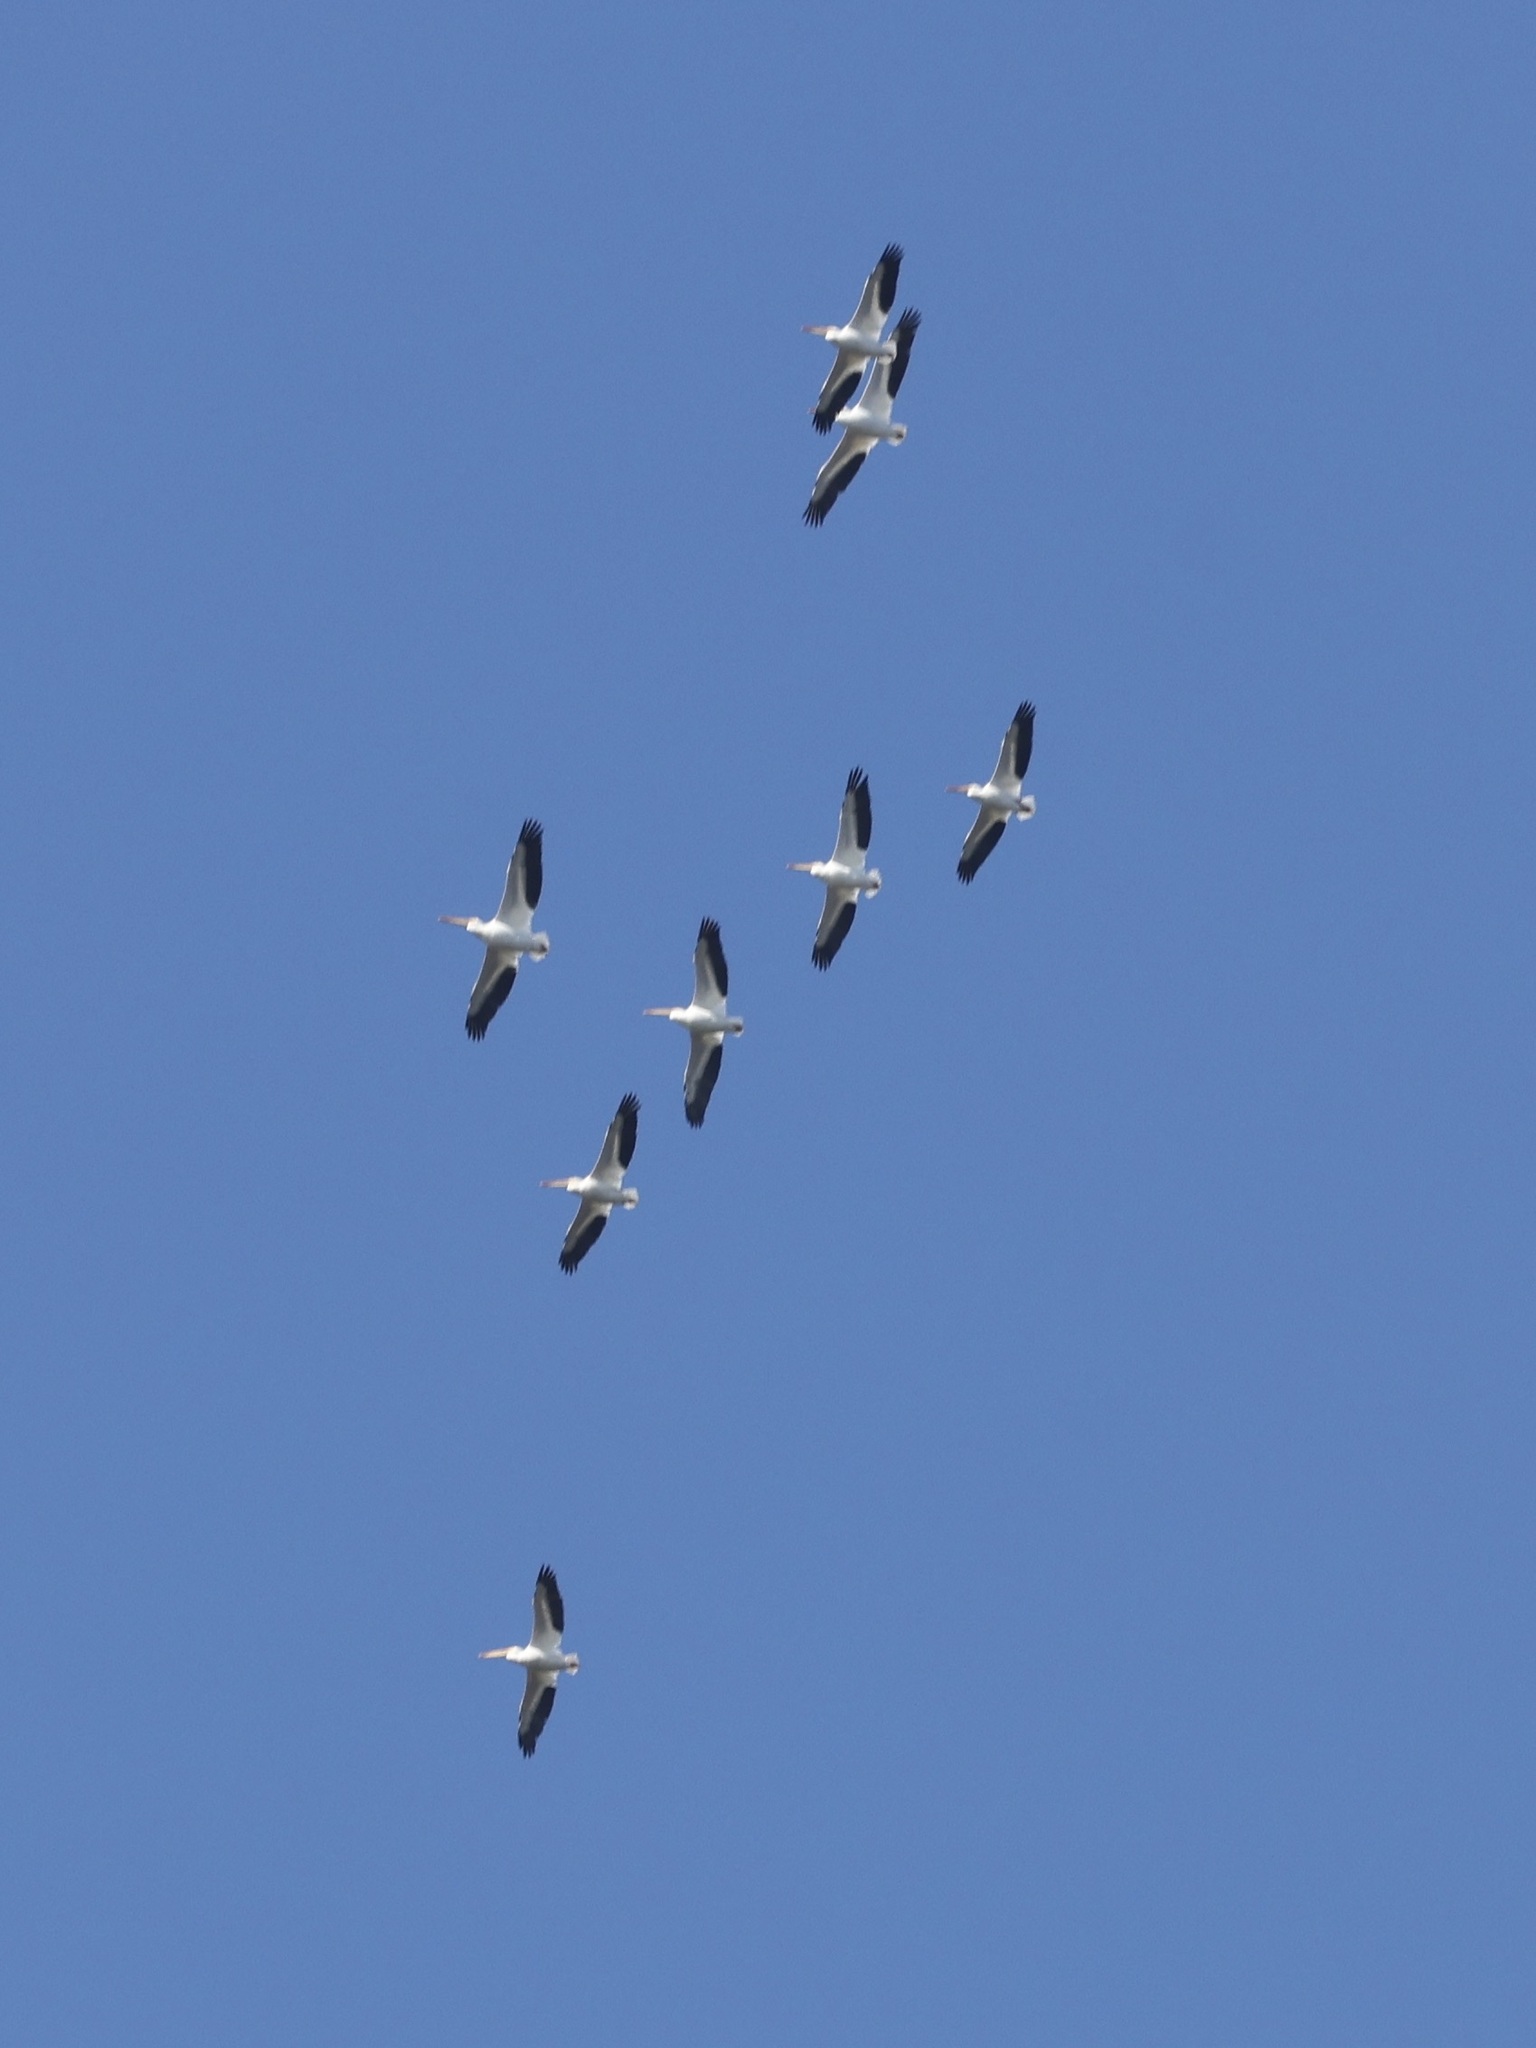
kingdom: Animalia
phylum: Chordata
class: Aves
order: Pelecaniformes
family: Pelecanidae
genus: Pelecanus
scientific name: Pelecanus erythrorhynchos
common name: American white pelican
